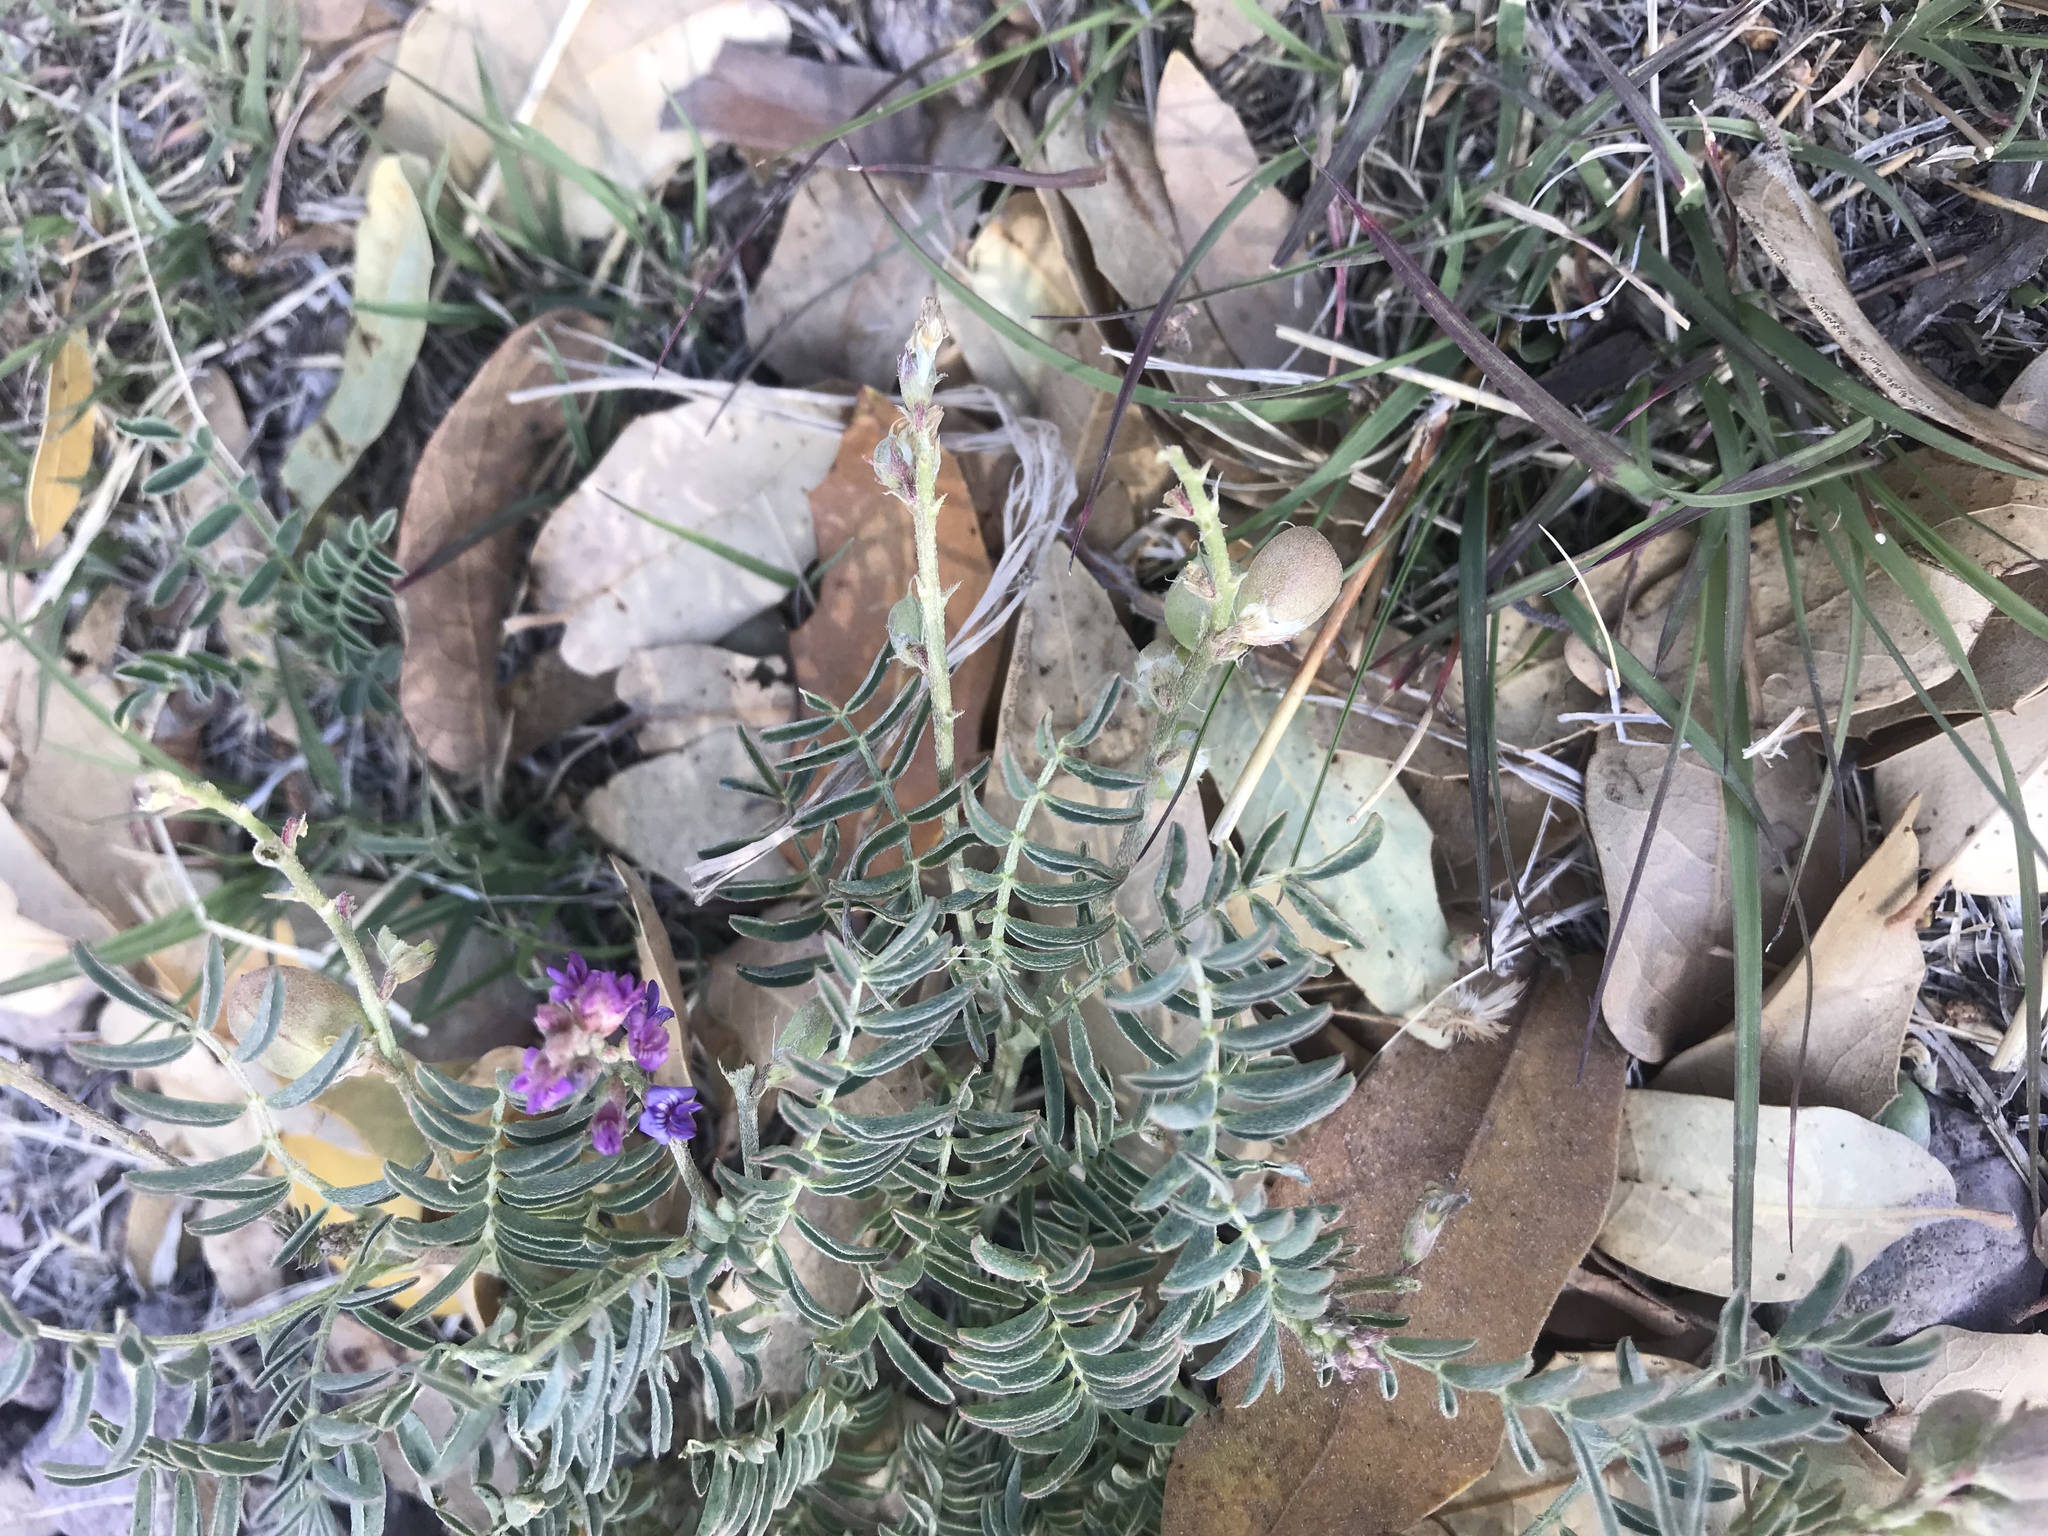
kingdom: Plantae
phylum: Tracheophyta
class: Magnoliopsida
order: Fabales
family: Fabaceae
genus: Astragalus
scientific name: Astragalus thurberi
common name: Thurber's milk-vetch
